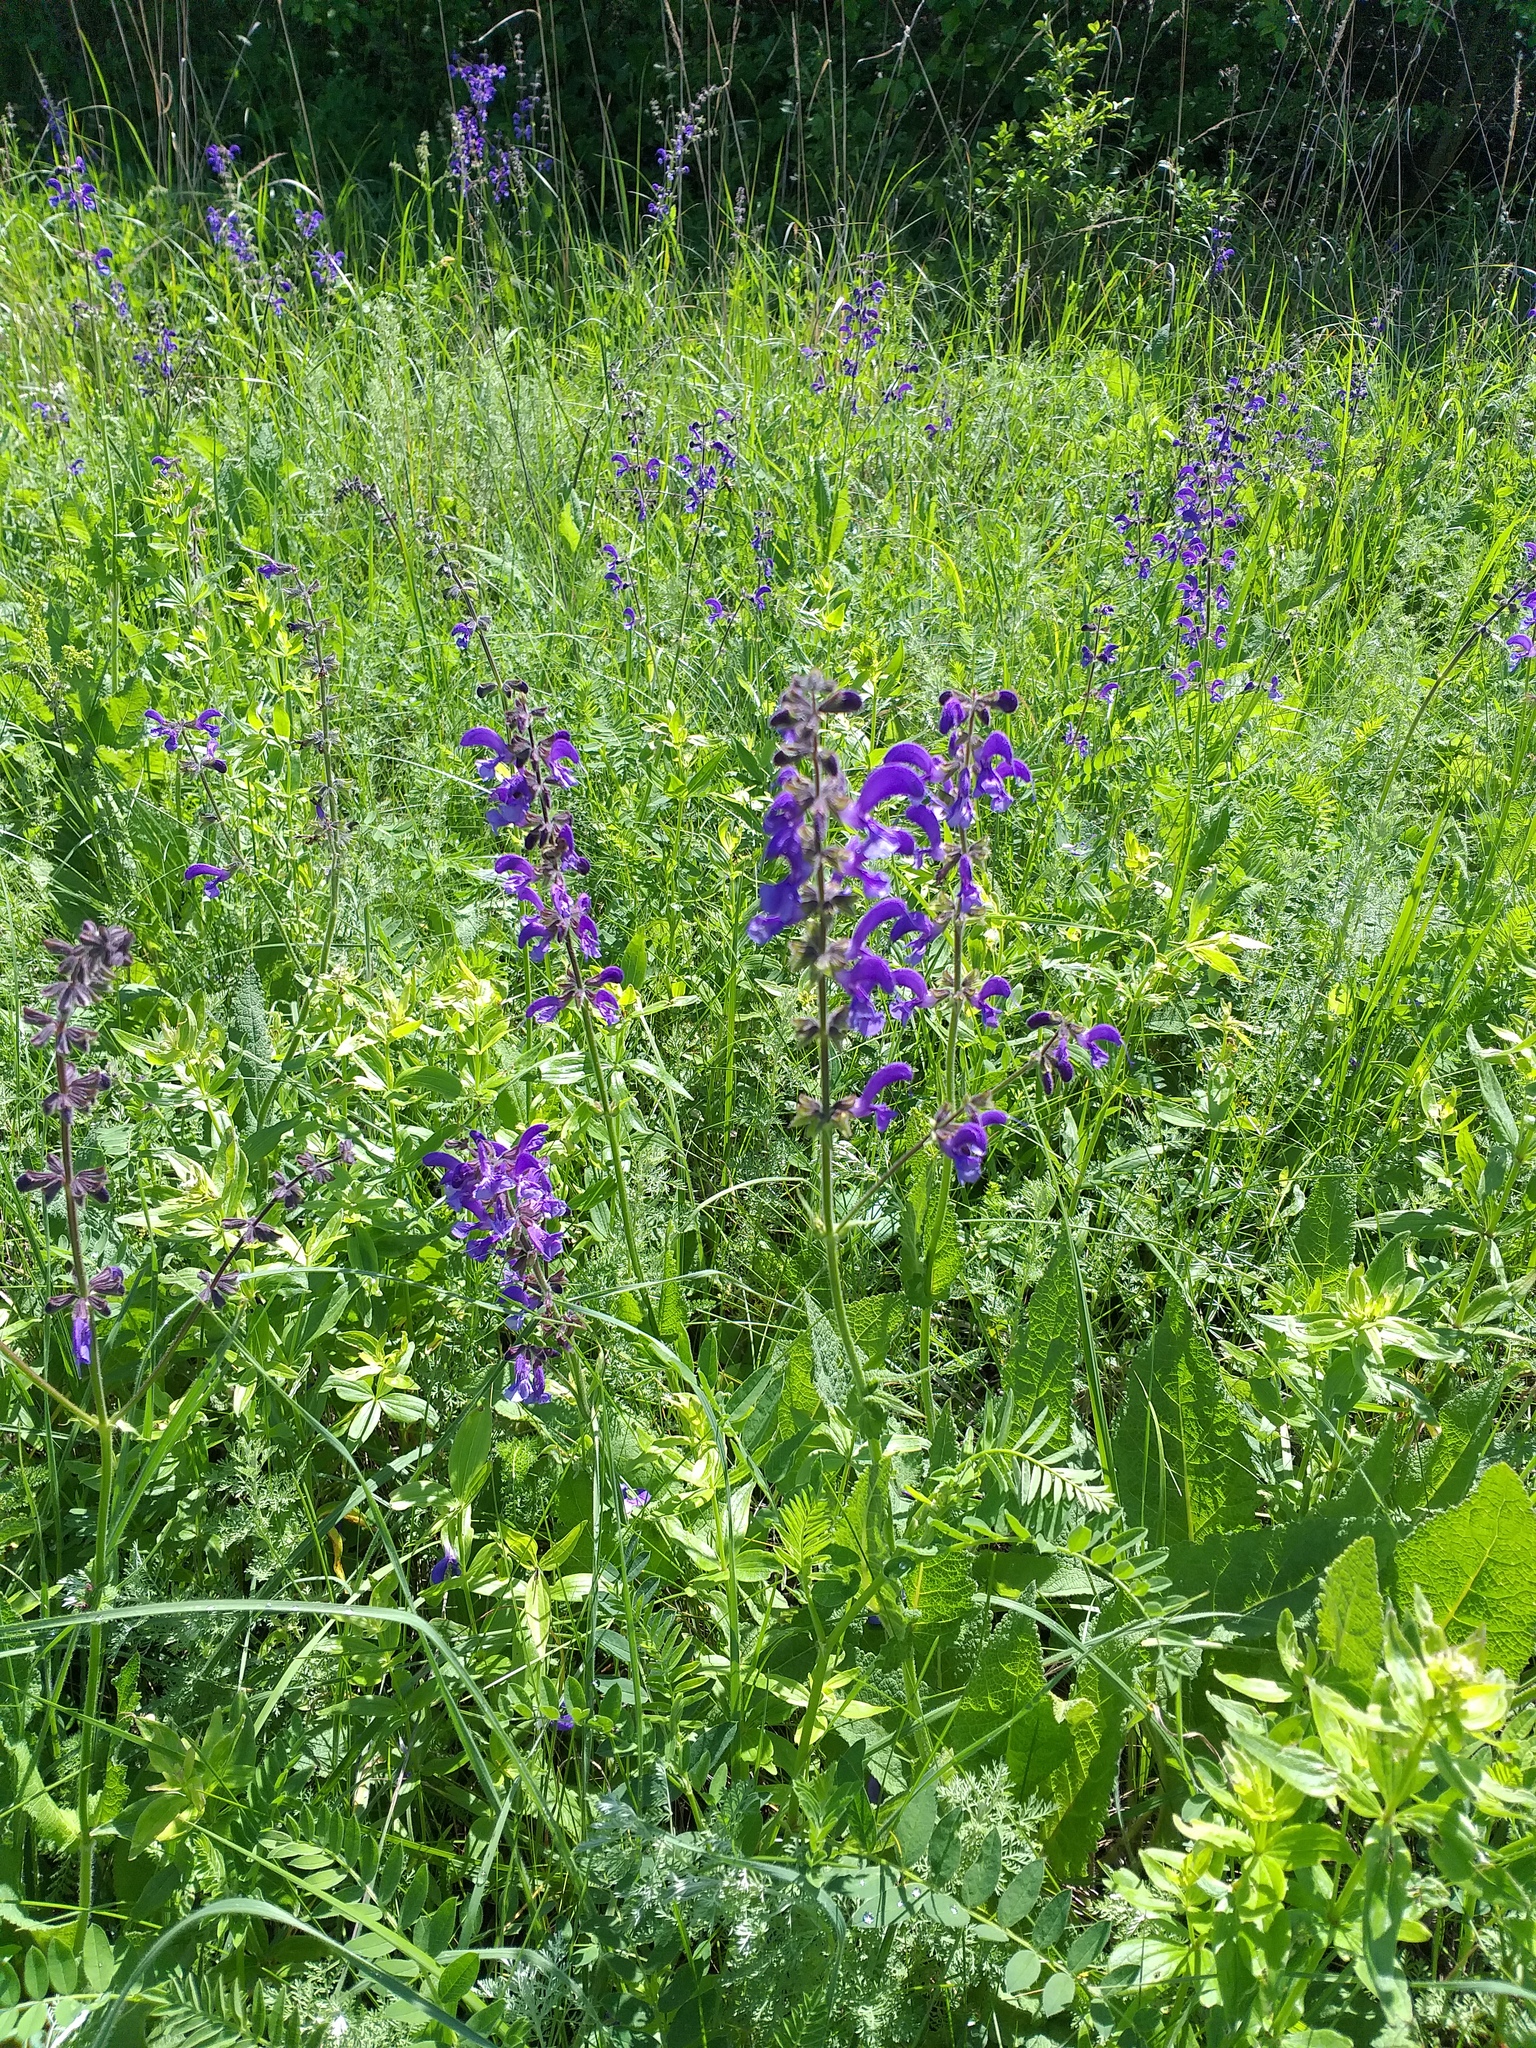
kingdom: Plantae
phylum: Tracheophyta
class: Magnoliopsida
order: Lamiales
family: Lamiaceae
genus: Salvia
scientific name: Salvia pratensis
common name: Meadow sage
